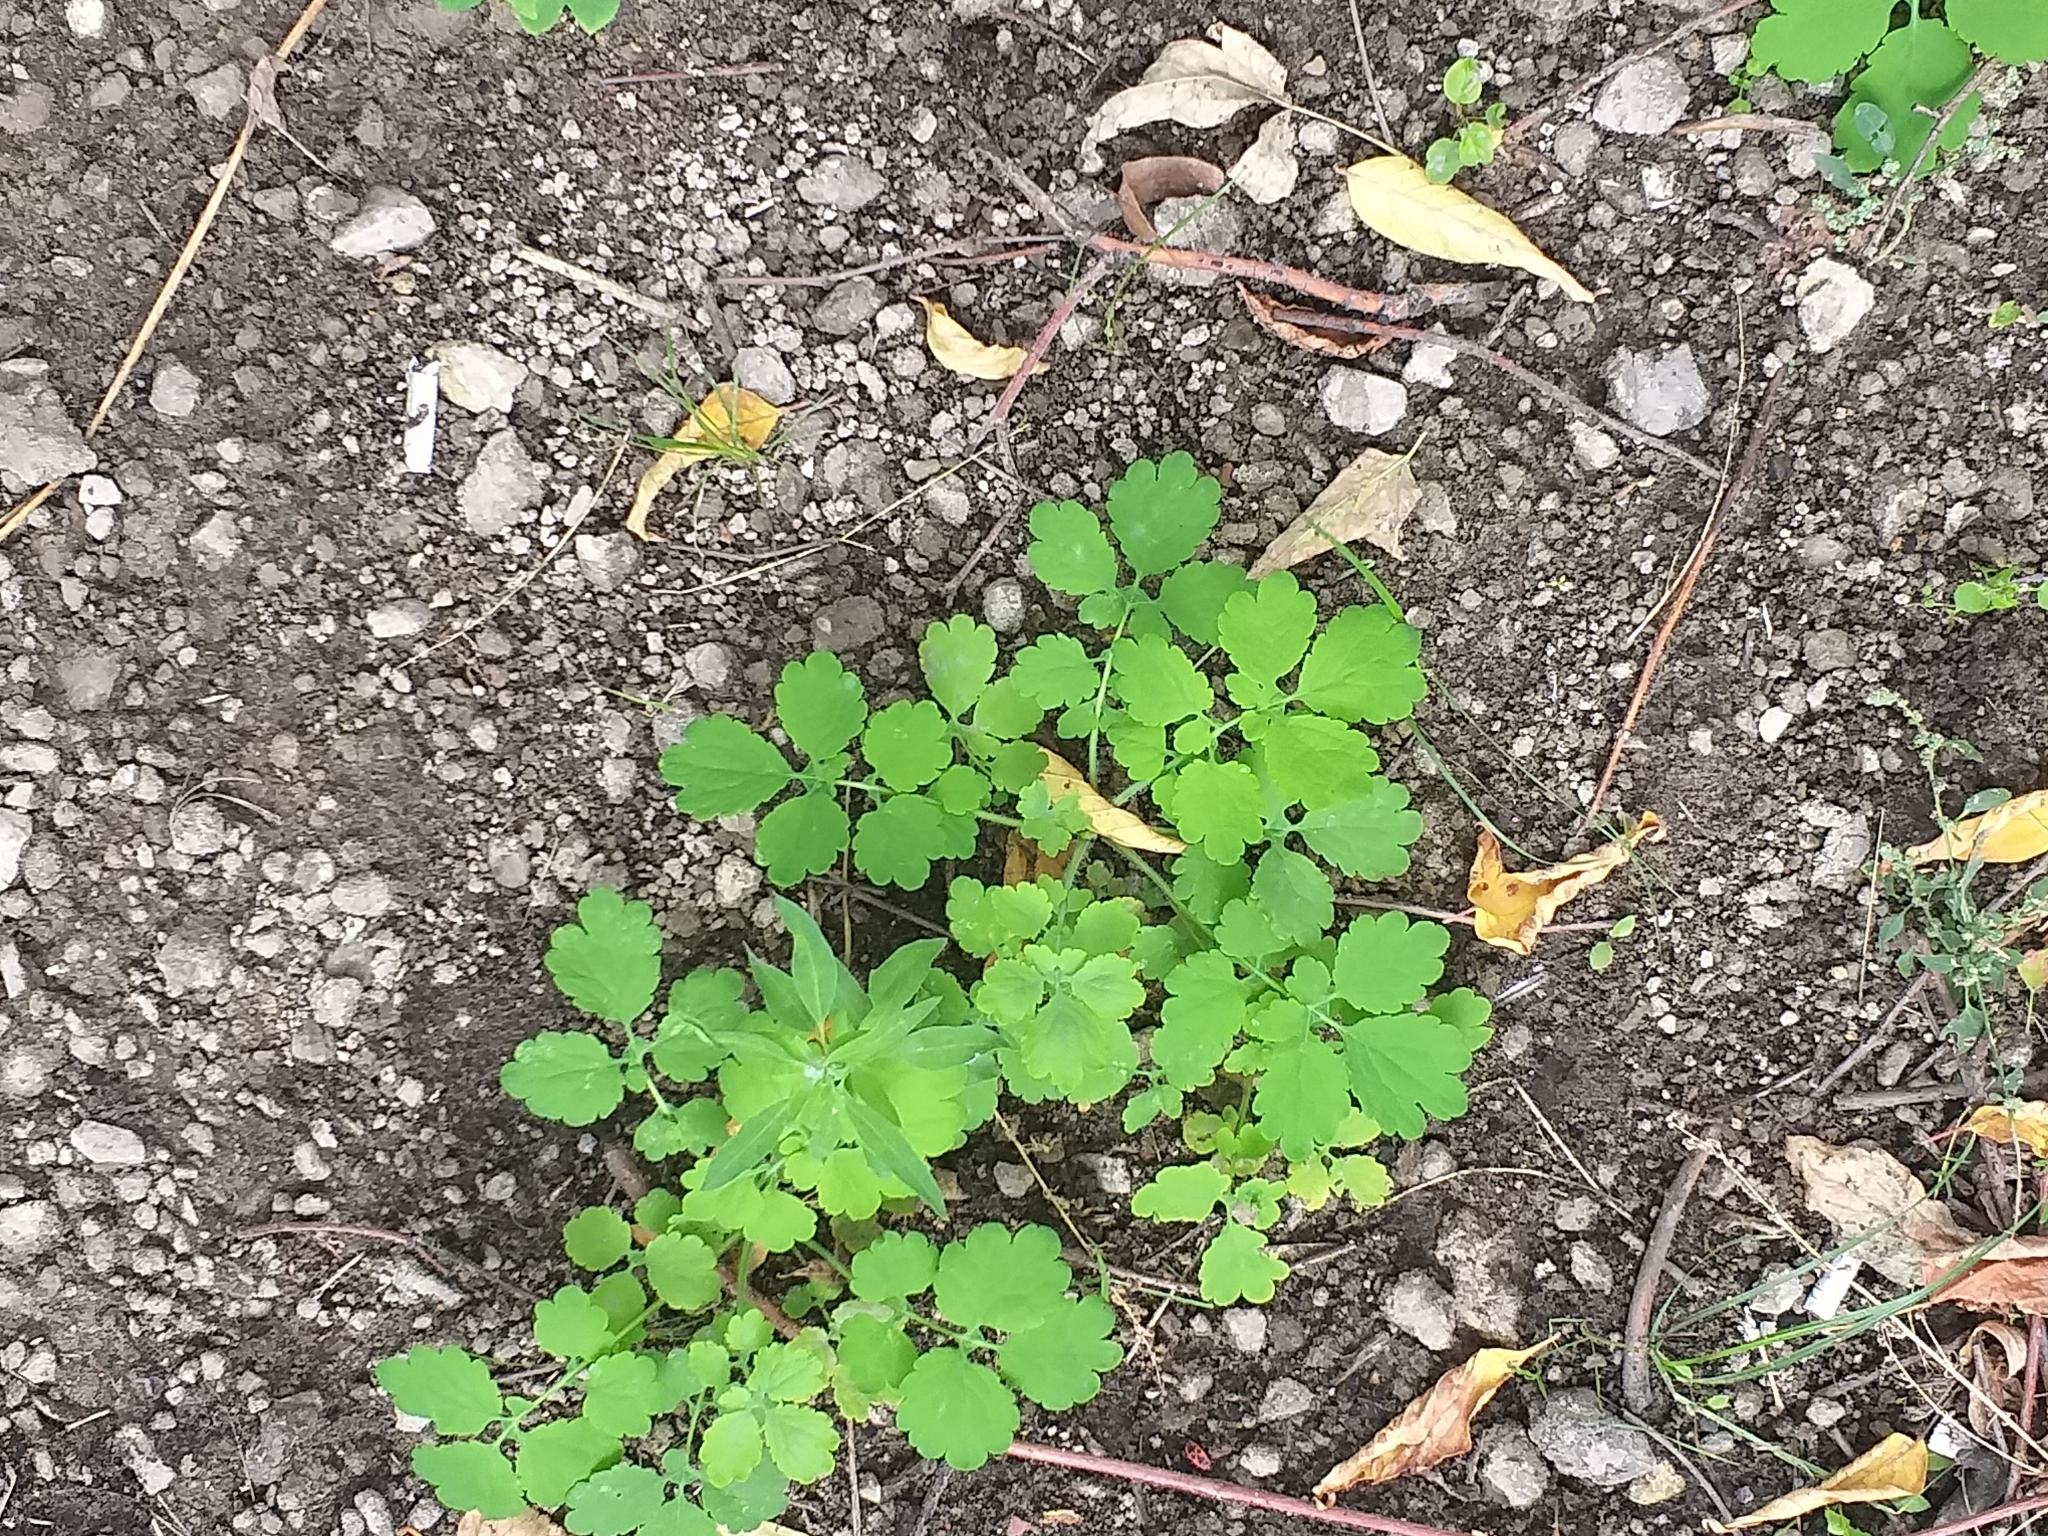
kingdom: Plantae
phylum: Tracheophyta
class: Magnoliopsida
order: Ranunculales
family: Papaveraceae
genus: Chelidonium
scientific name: Chelidonium majus
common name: Greater celandine
